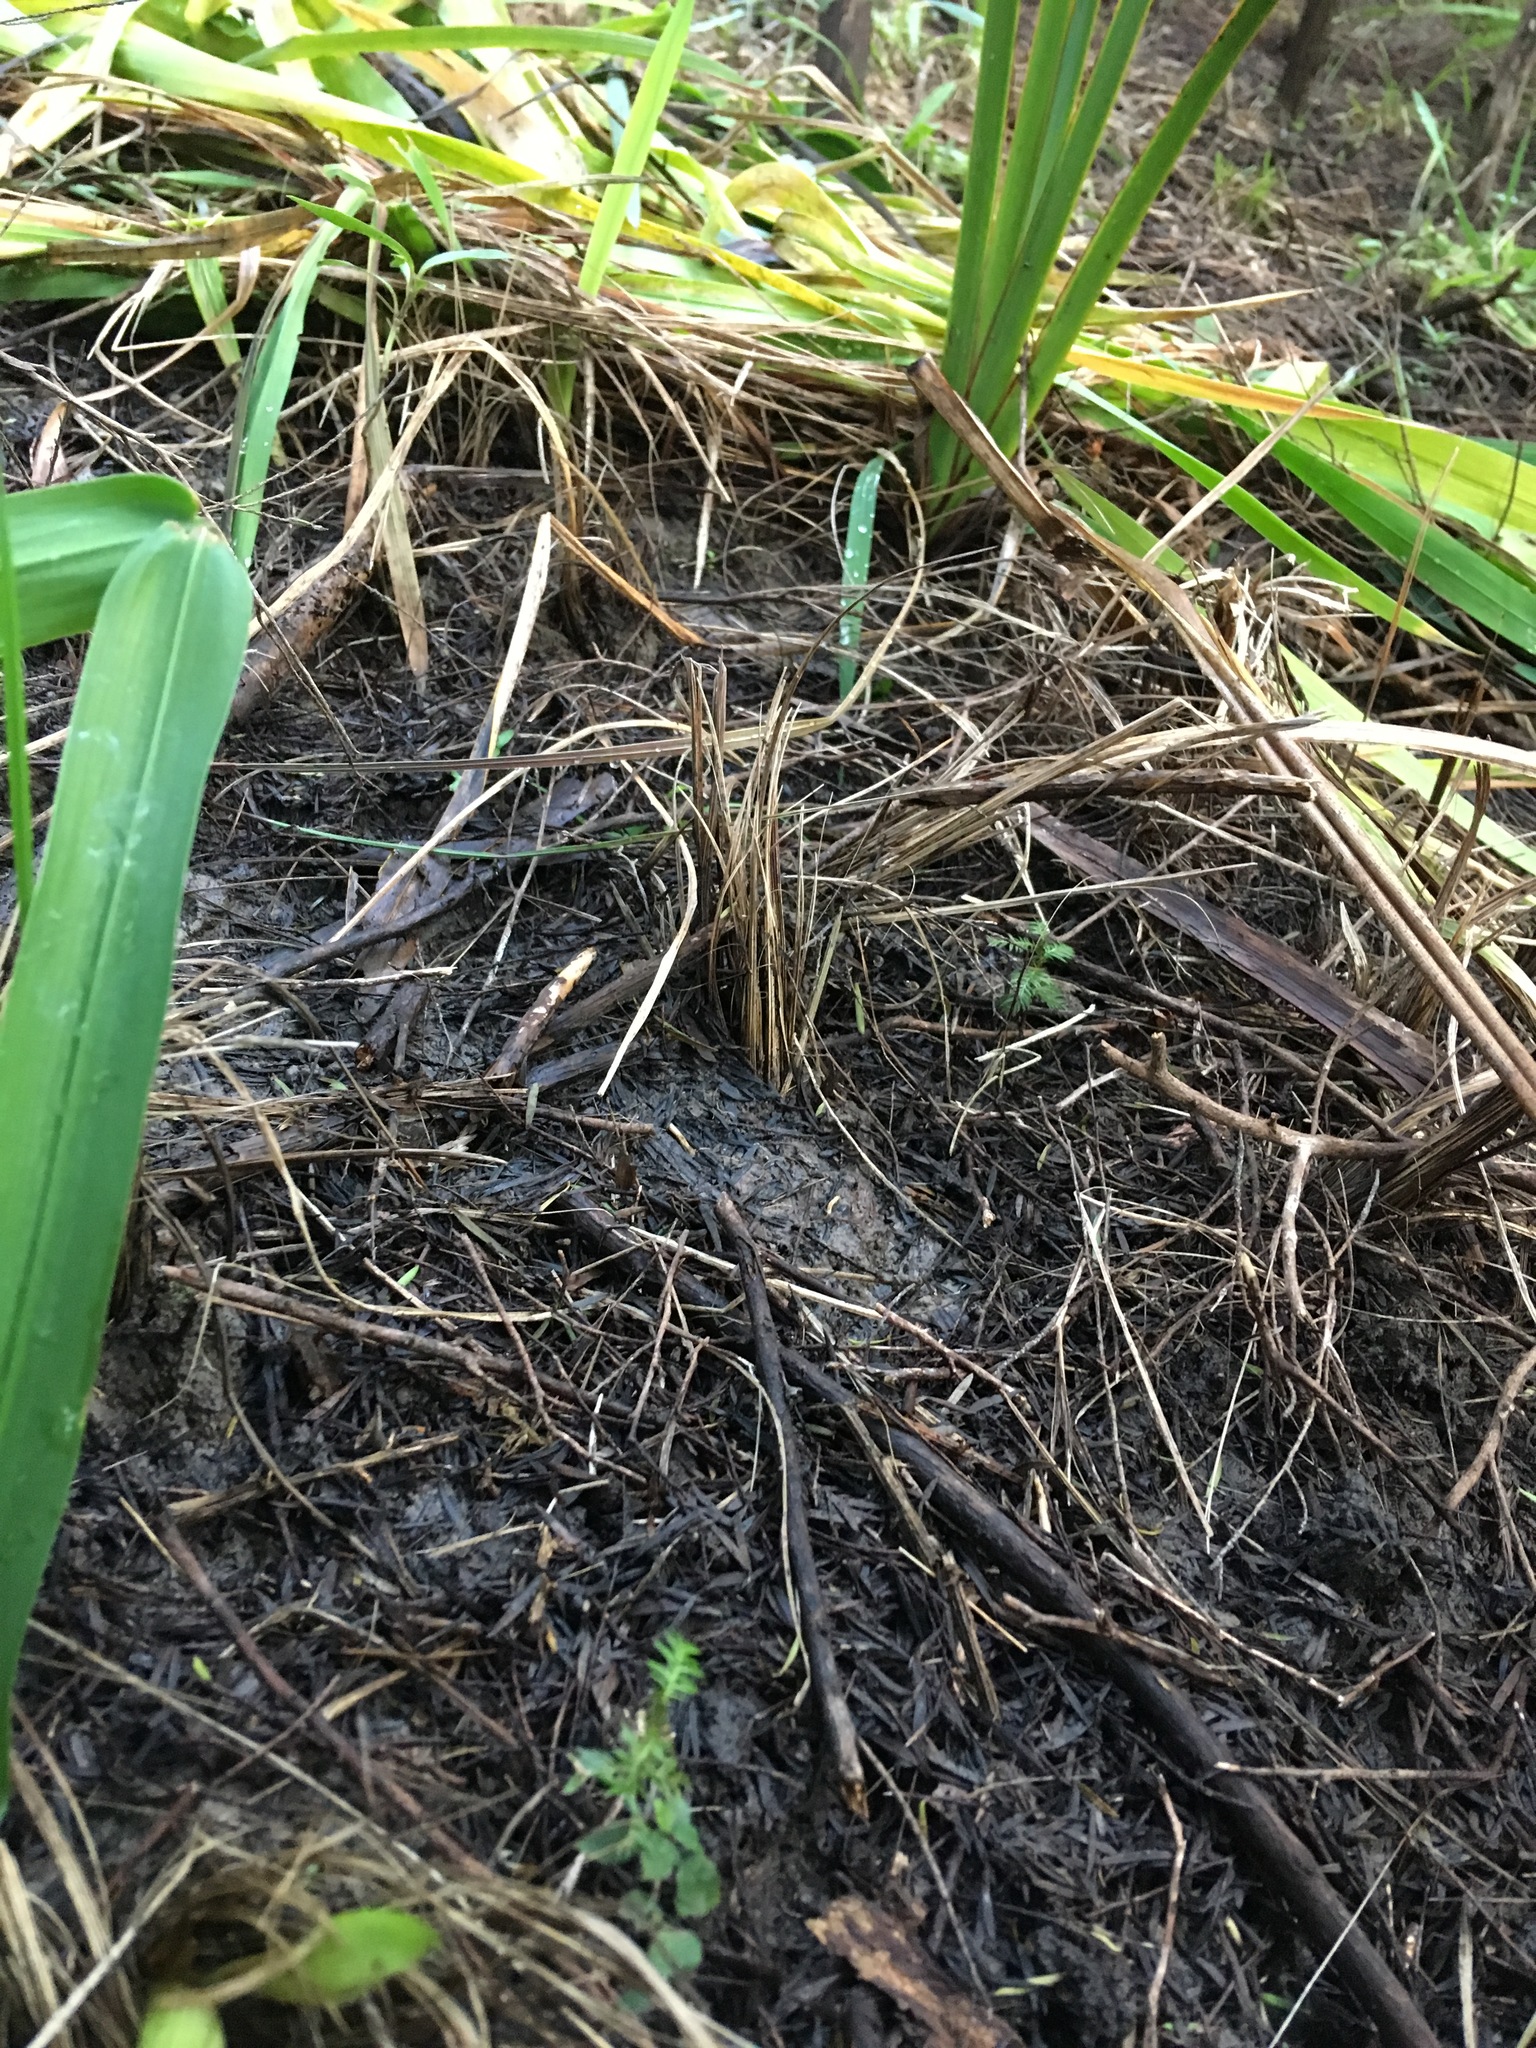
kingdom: Plantae
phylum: Tracheophyta
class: Magnoliopsida
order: Gentianales
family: Rubiaceae
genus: Coprosma
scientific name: Coprosma areolata
